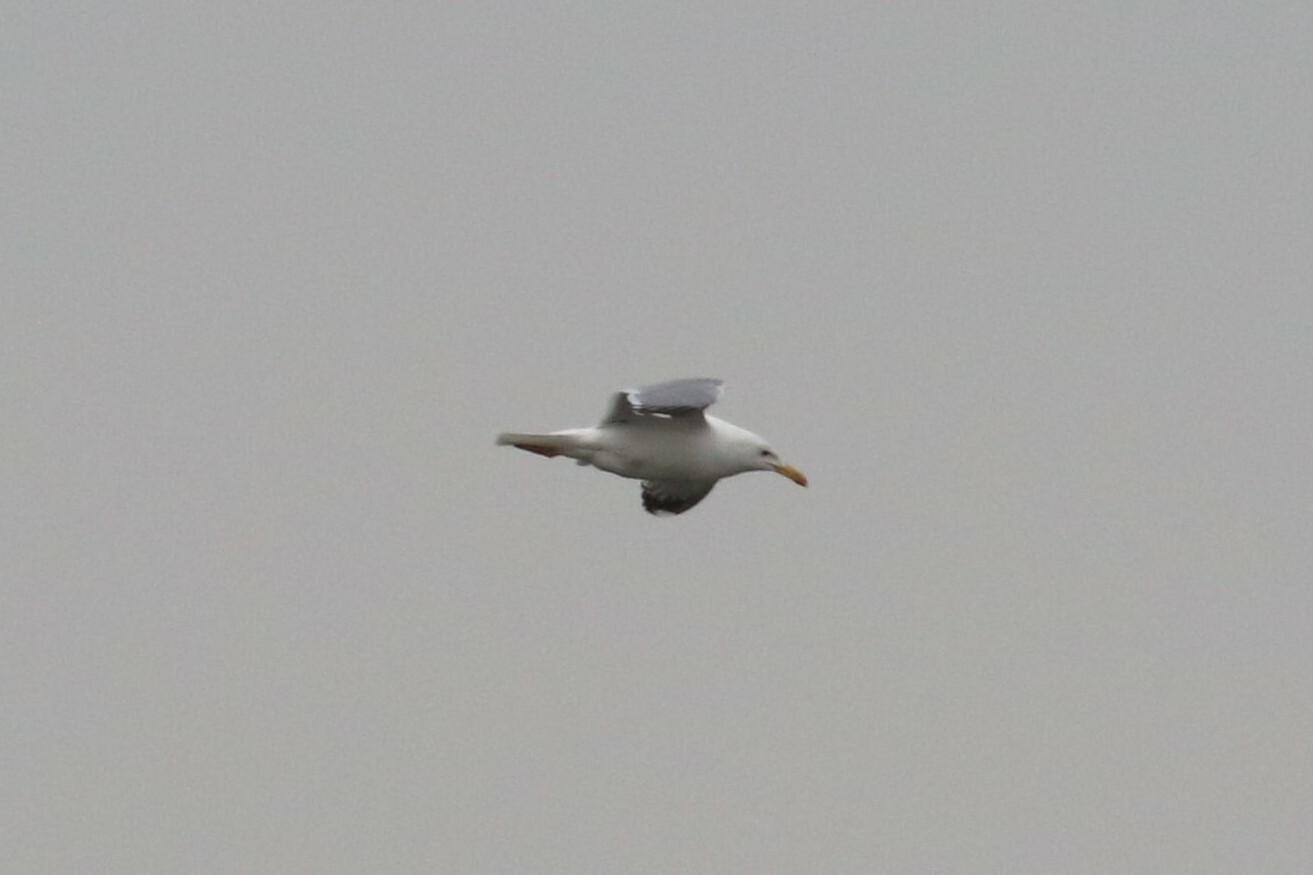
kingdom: Animalia
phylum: Chordata
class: Aves
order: Charadriiformes
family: Laridae
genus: Larus
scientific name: Larus cachinnans
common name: Caspian gull
